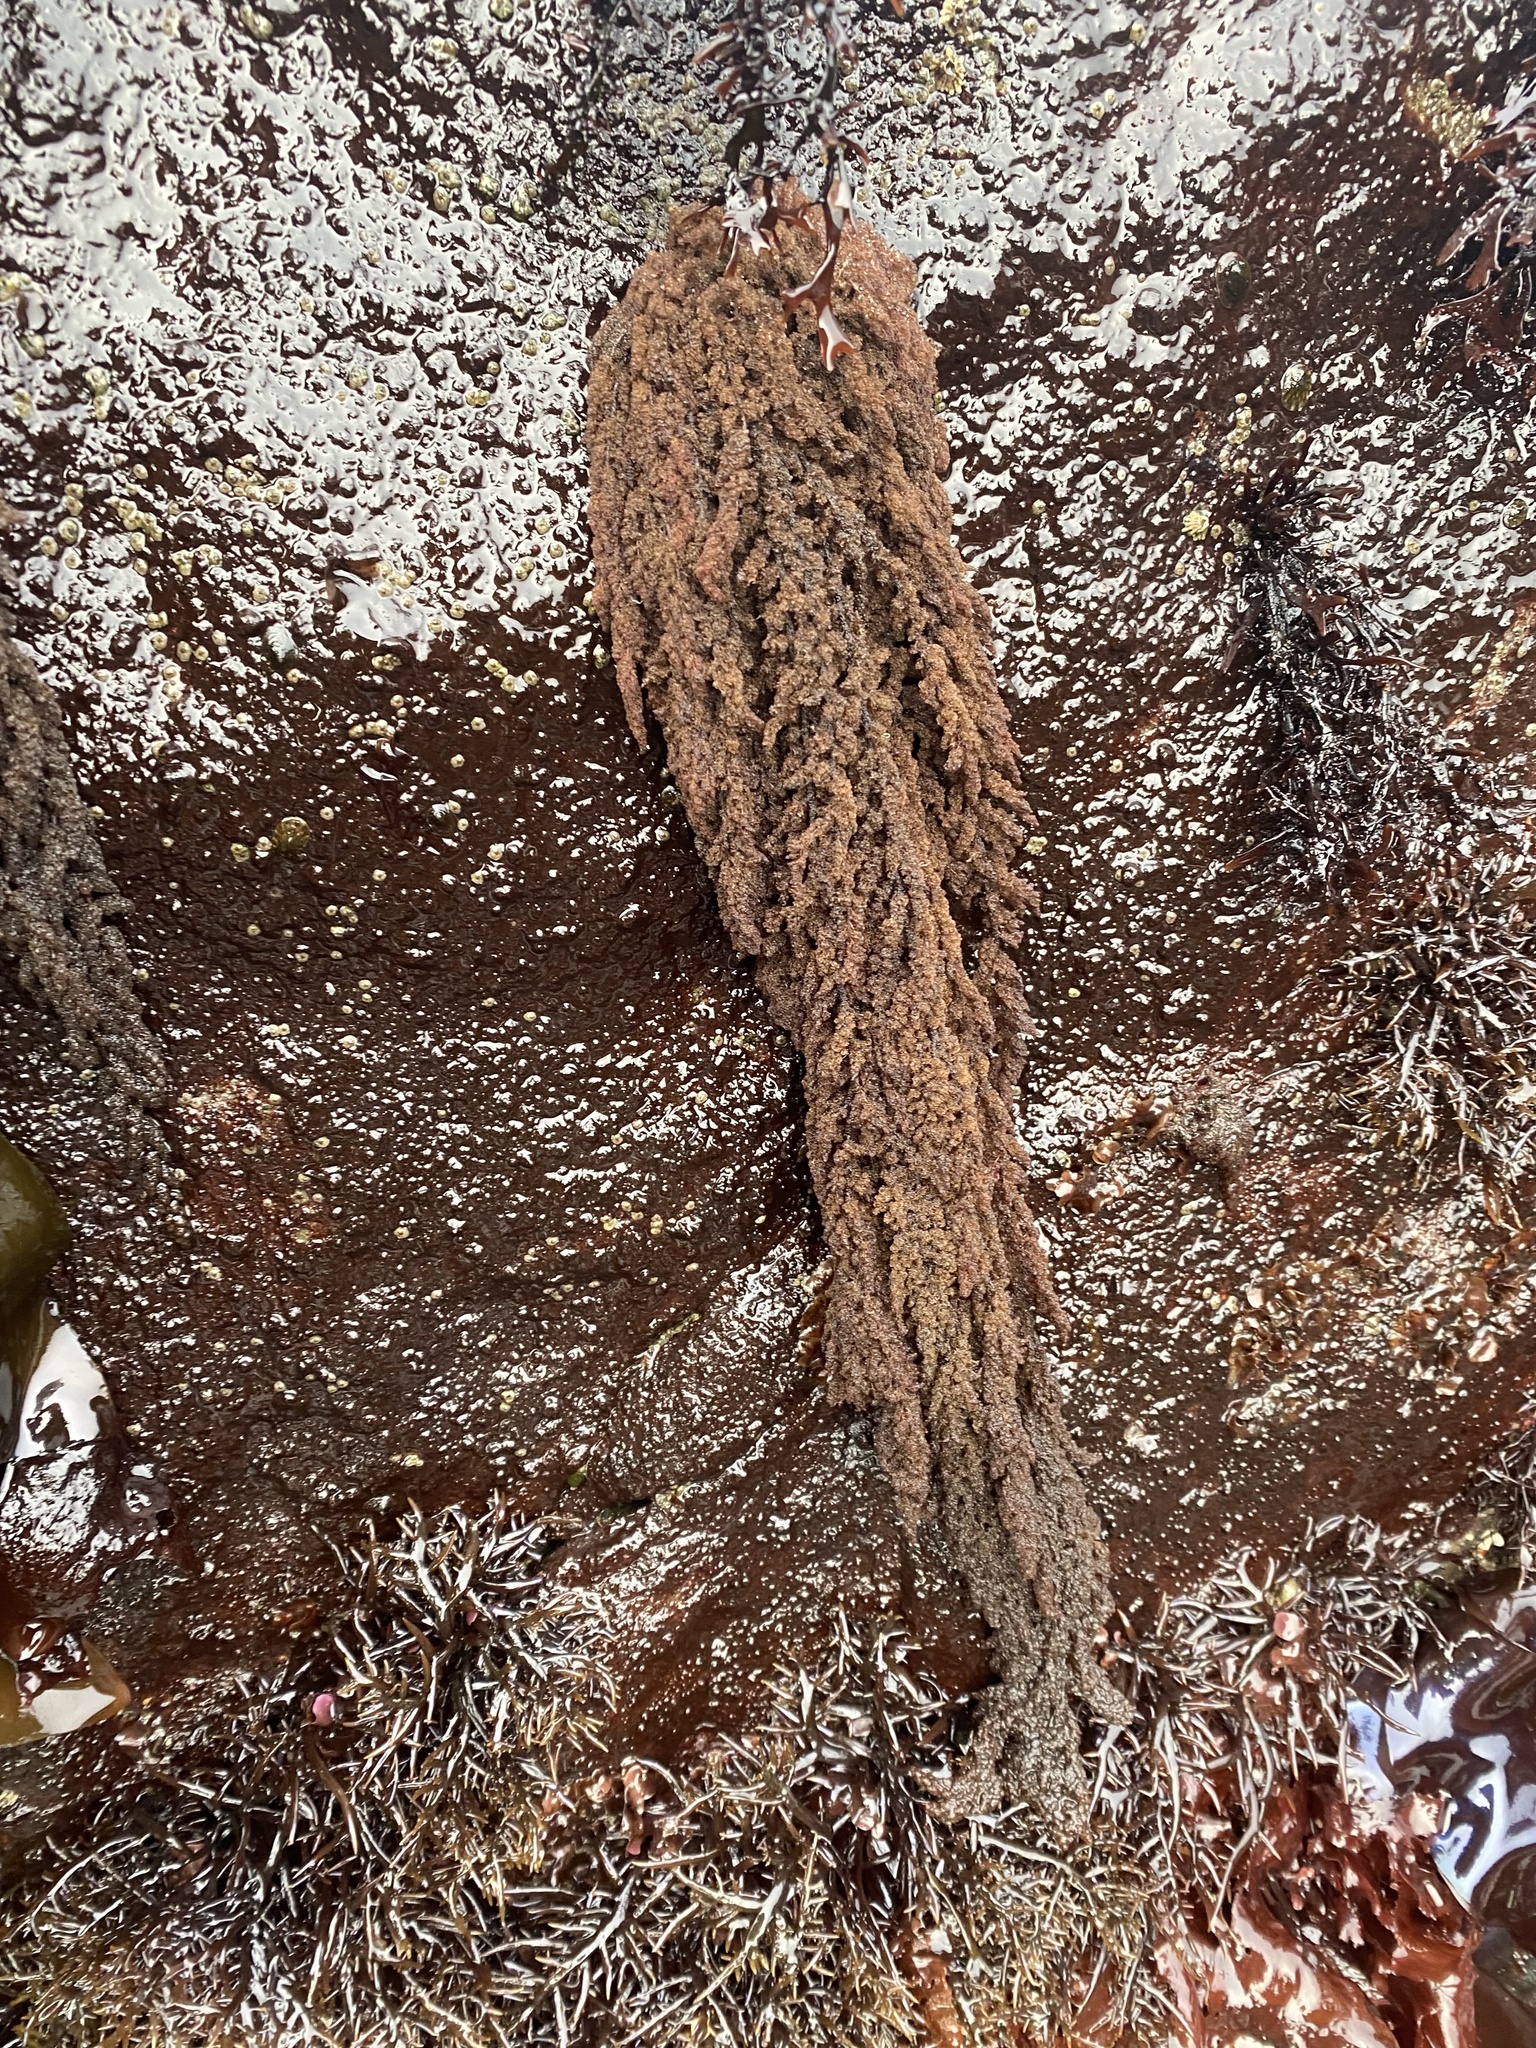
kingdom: Plantae
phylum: Rhodophyta
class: Florideophyceae
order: Ceramiales
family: Callithamniaceae
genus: Callithamnion
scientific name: Callithamnion pikeanum
